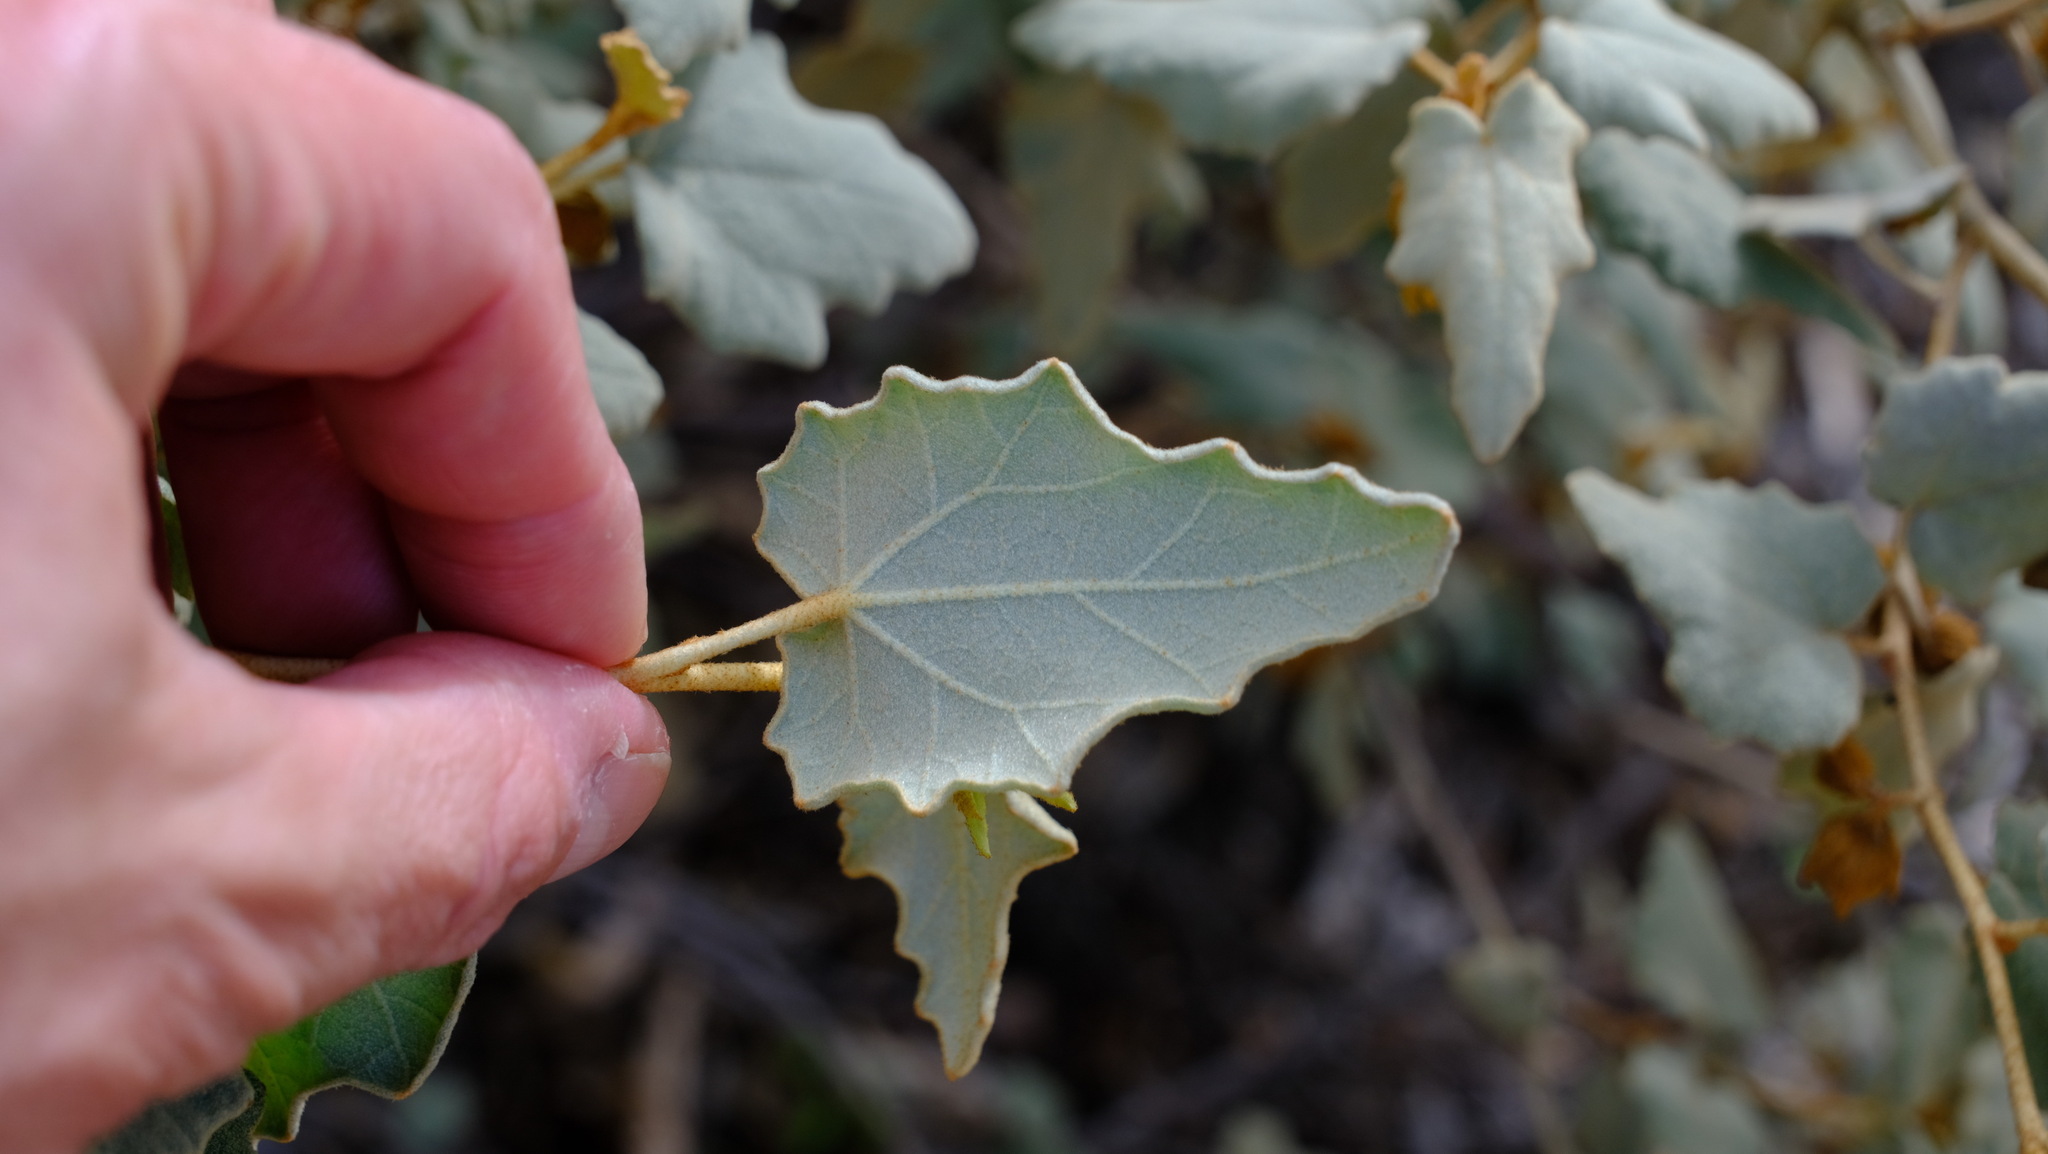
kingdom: Plantae
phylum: Tracheophyta
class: Magnoliopsida
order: Malvales
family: Malvaceae
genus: Hannafordia
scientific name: Hannafordia quadrivalvis
